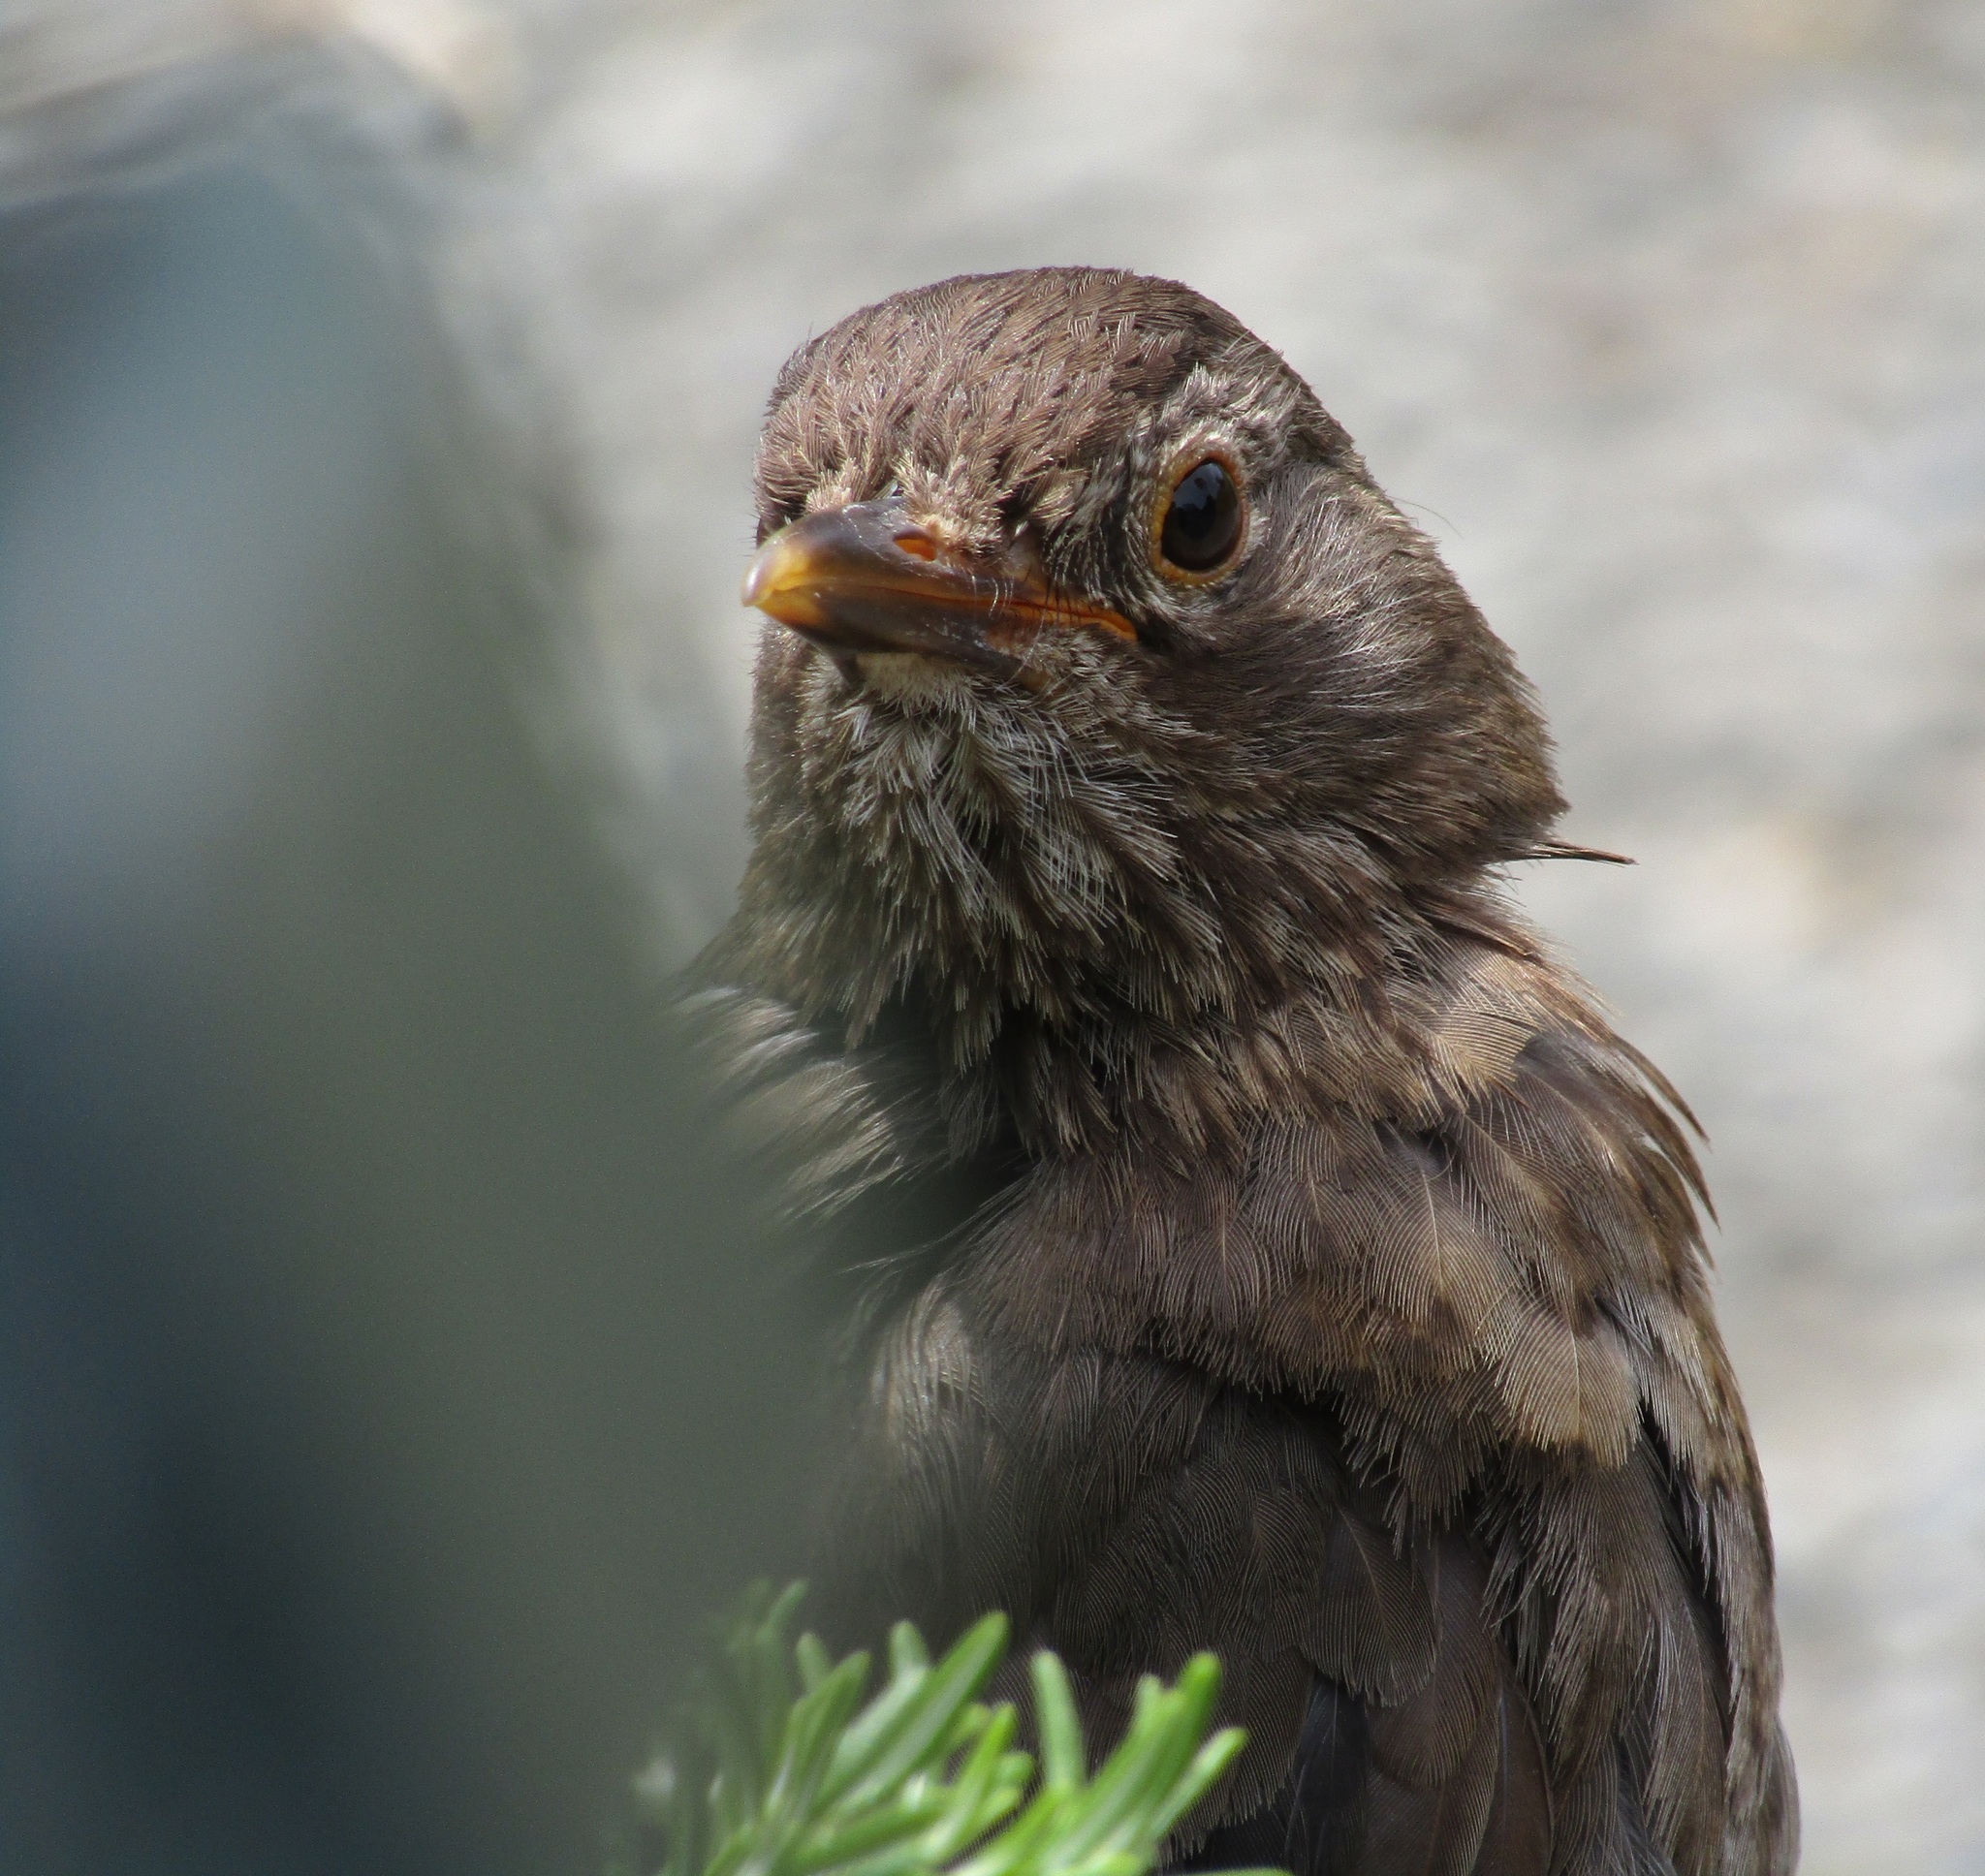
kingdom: Animalia
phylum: Chordata
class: Aves
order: Passeriformes
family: Turdidae
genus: Turdus
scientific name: Turdus merula
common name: Common blackbird
